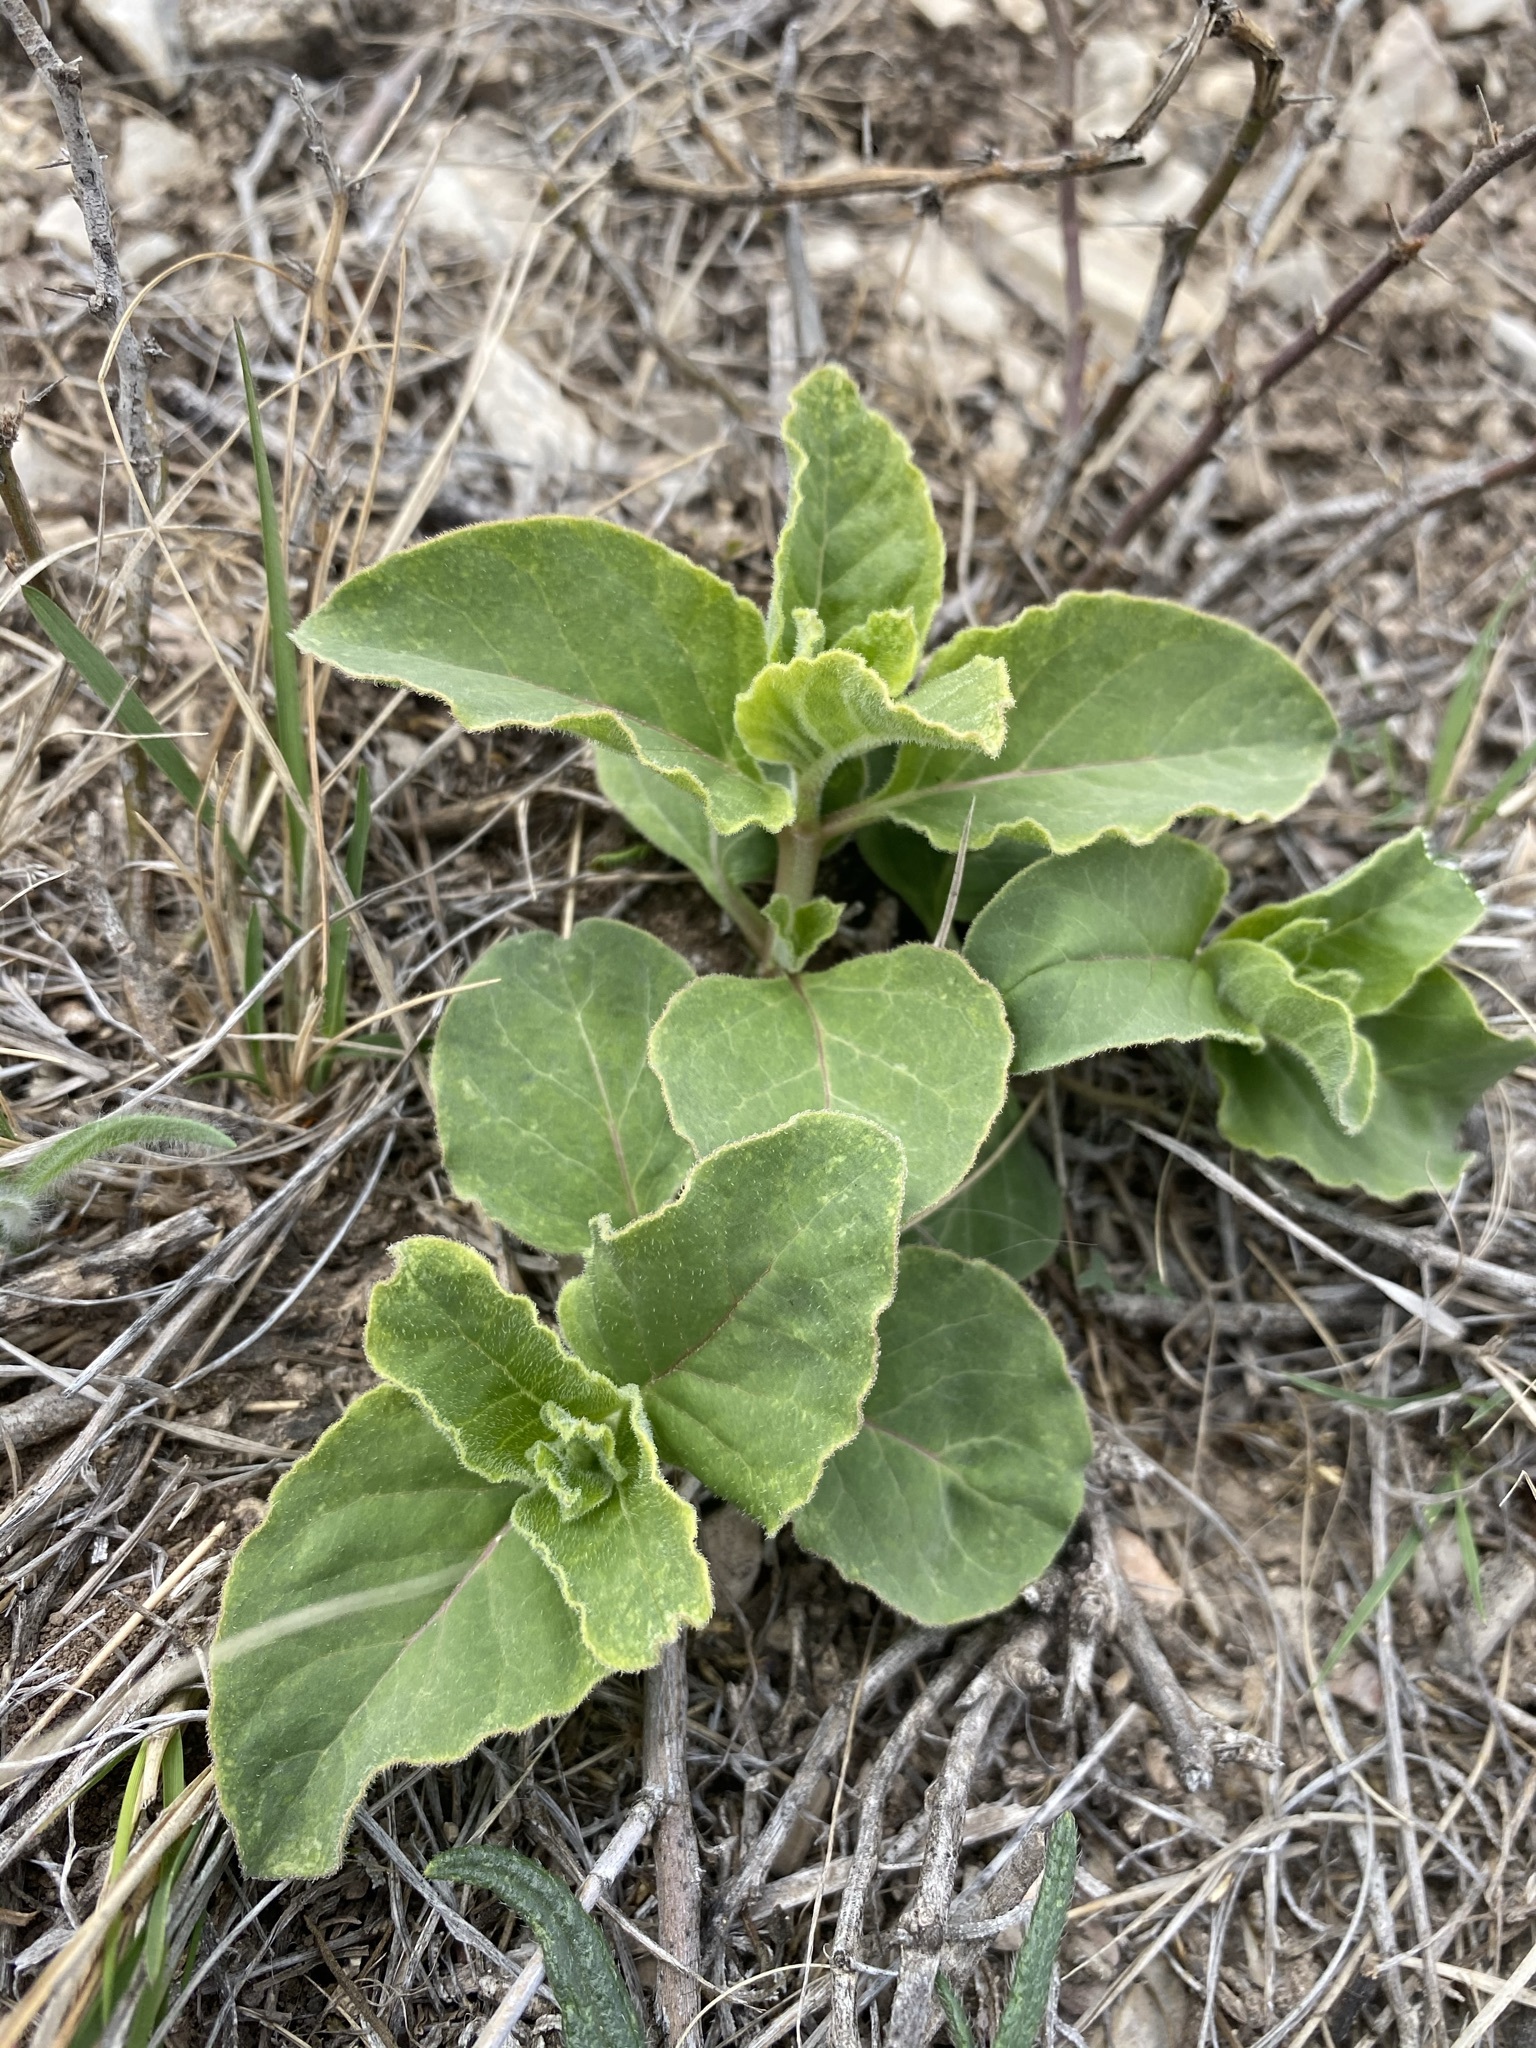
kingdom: Plantae
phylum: Tracheophyta
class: Magnoliopsida
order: Gentianales
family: Apocynaceae
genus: Asclepias
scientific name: Asclepias oenotheroides
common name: Zizotes milkweed
